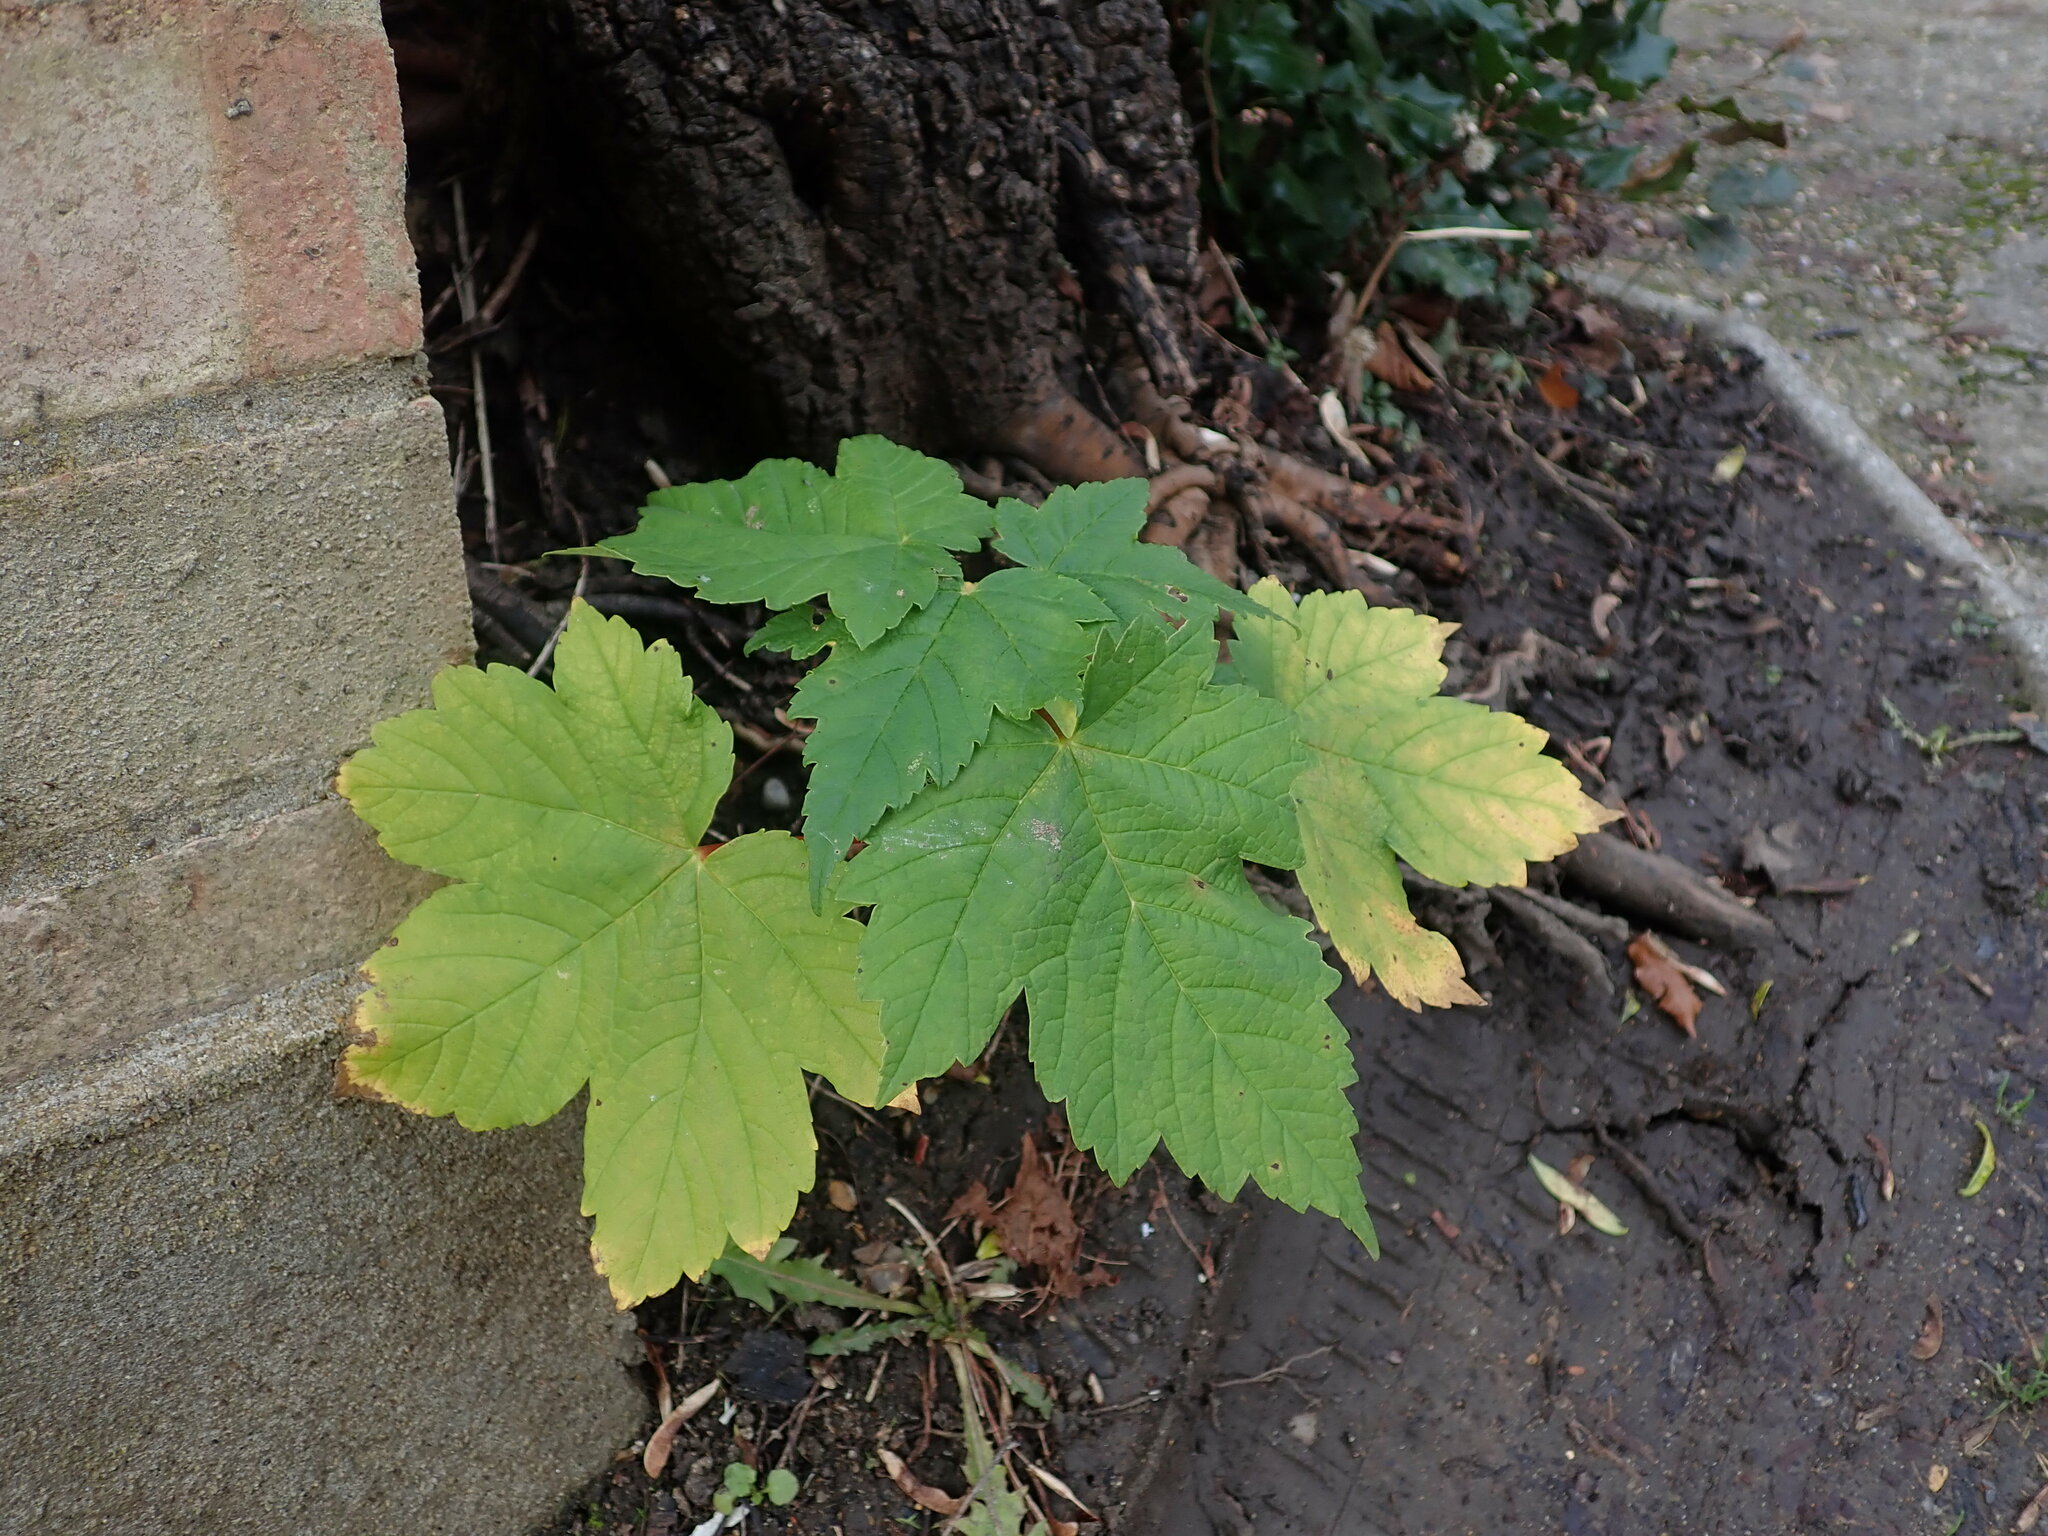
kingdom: Plantae
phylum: Tracheophyta
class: Magnoliopsida
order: Sapindales
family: Sapindaceae
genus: Acer
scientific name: Acer pseudoplatanus
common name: Sycamore
